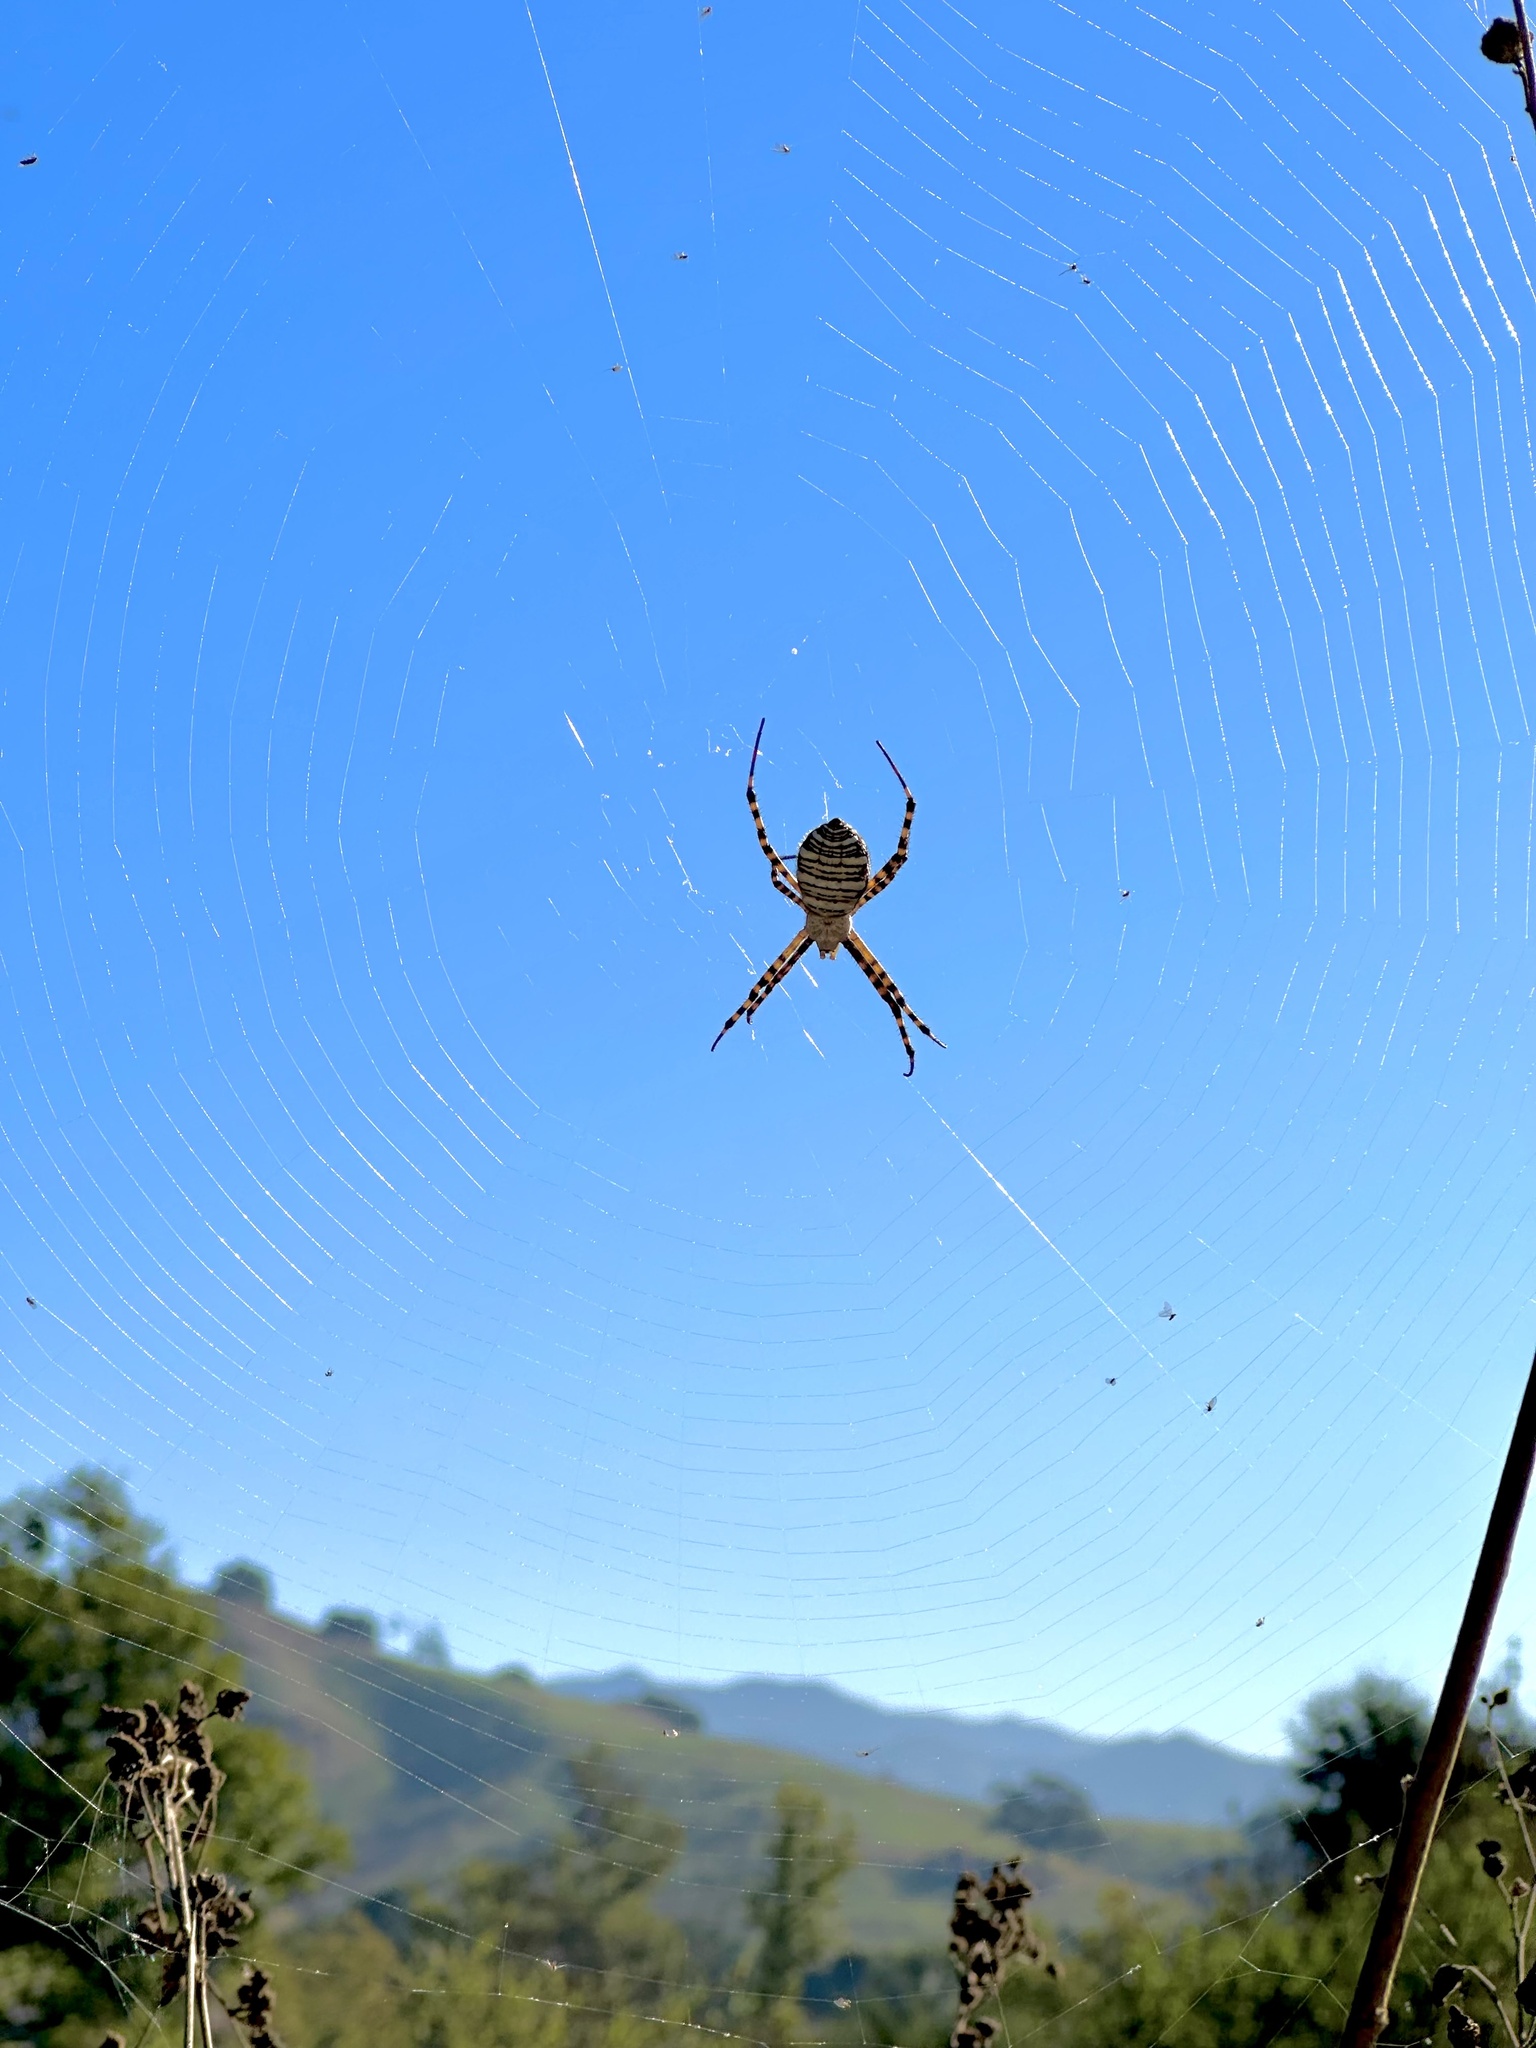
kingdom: Animalia
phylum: Arthropoda
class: Arachnida
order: Araneae
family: Araneidae
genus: Argiope
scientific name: Argiope trifasciata
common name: Banded garden spider
